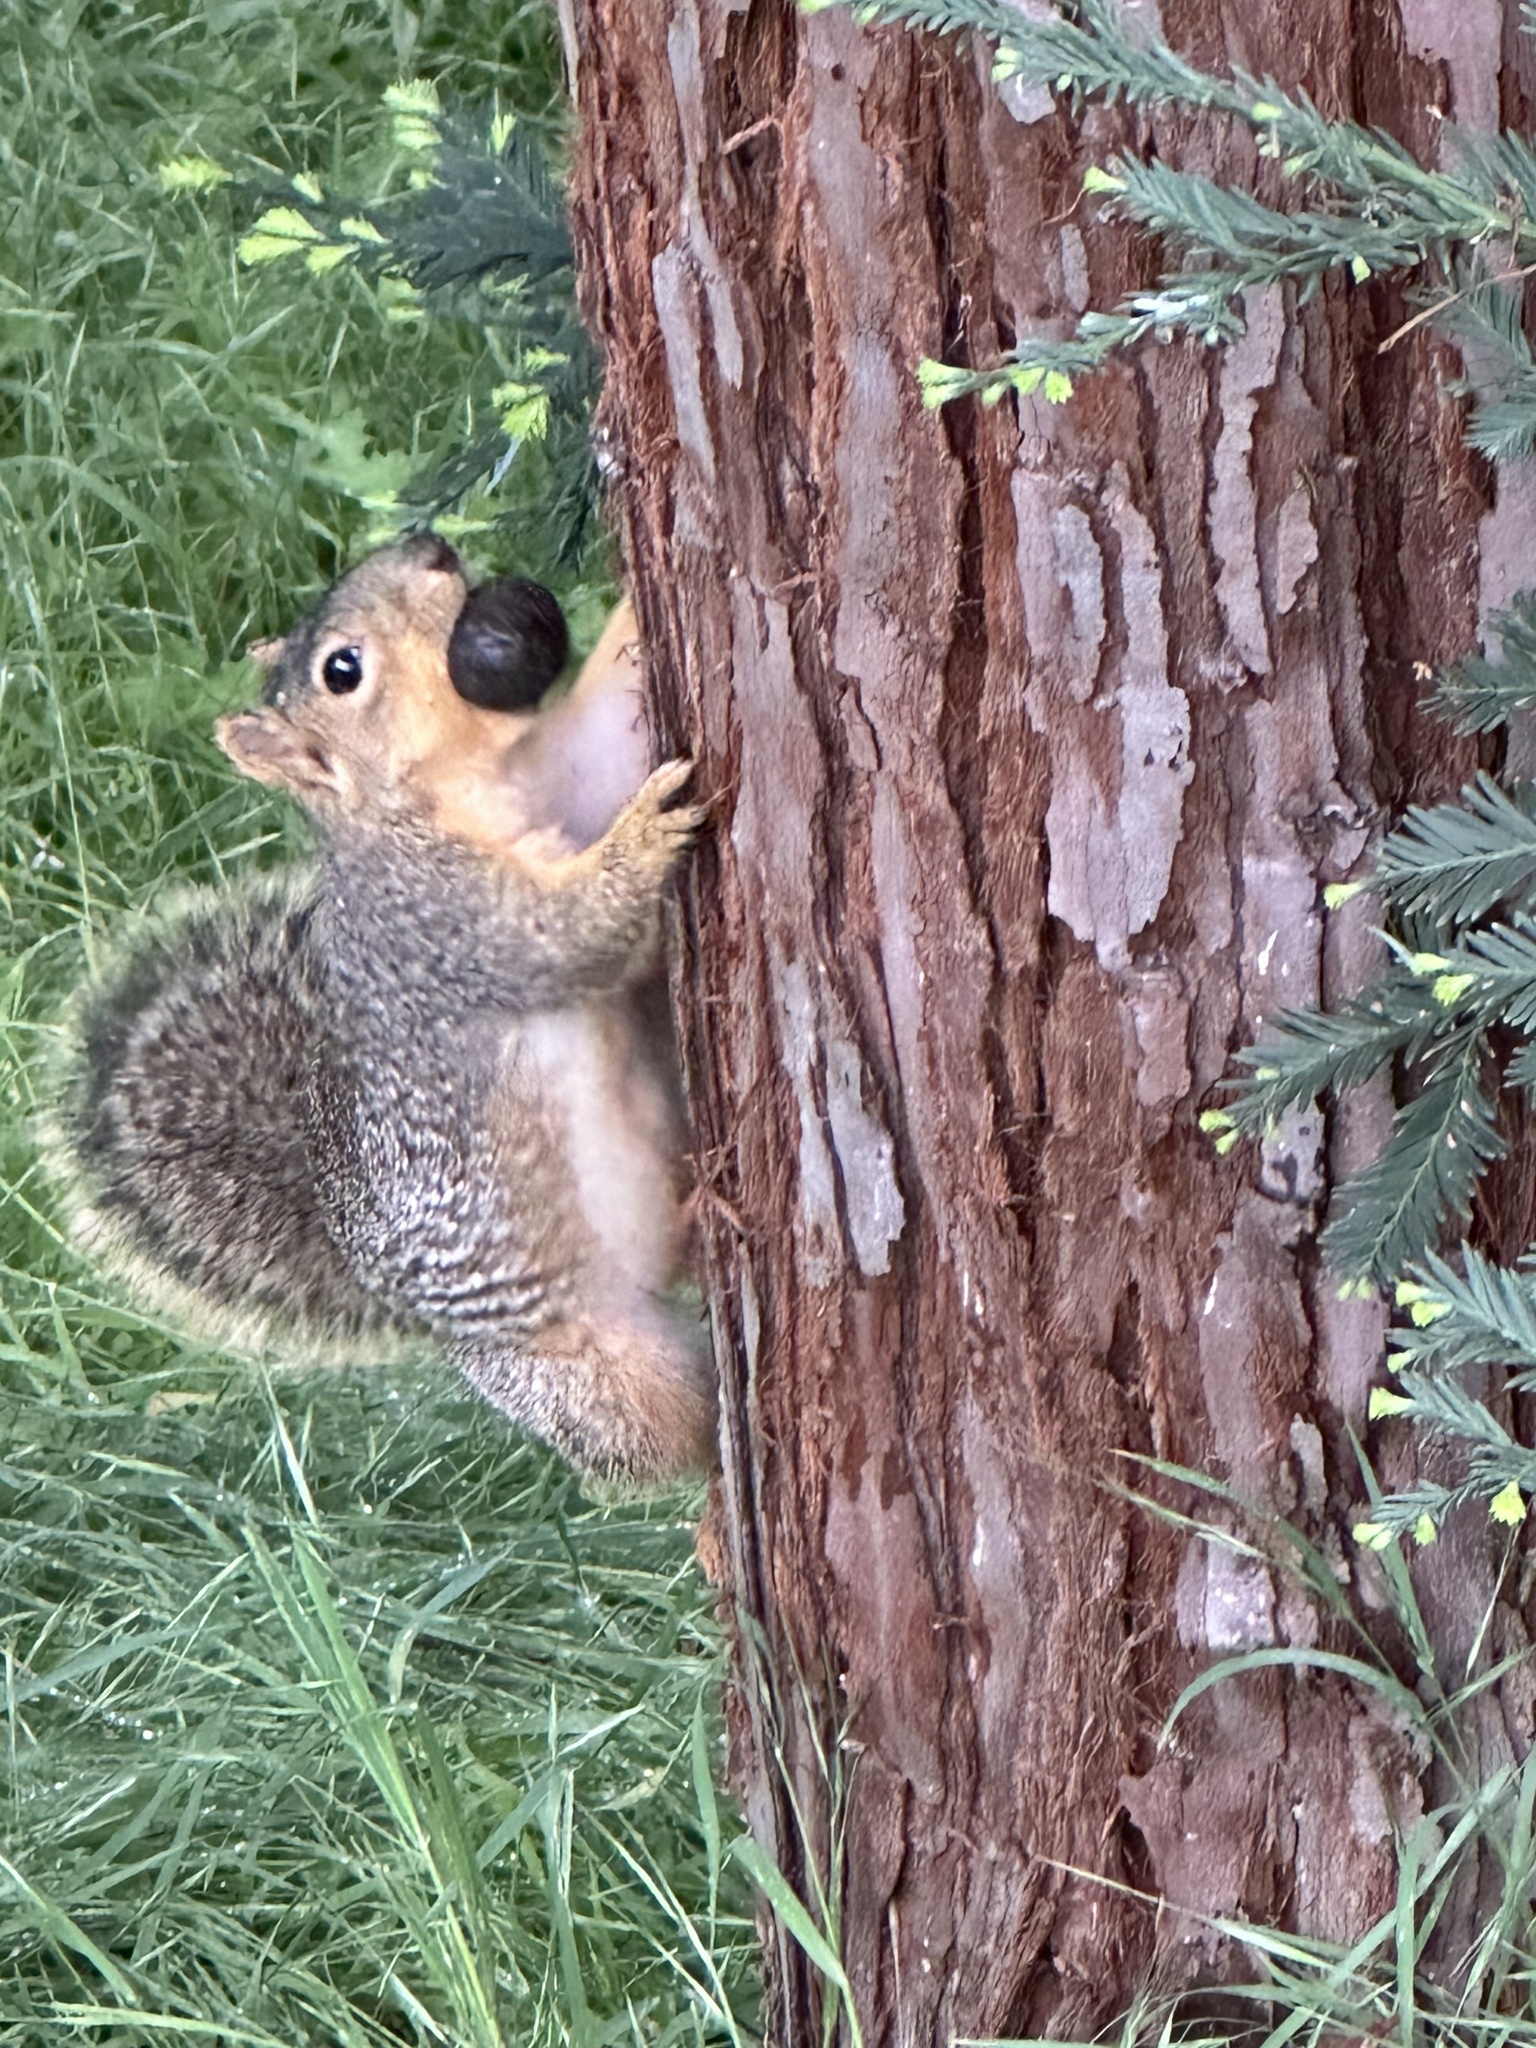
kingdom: Animalia
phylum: Chordata
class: Mammalia
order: Rodentia
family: Sciuridae
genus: Sciurus
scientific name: Sciurus niger
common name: Fox squirrel
